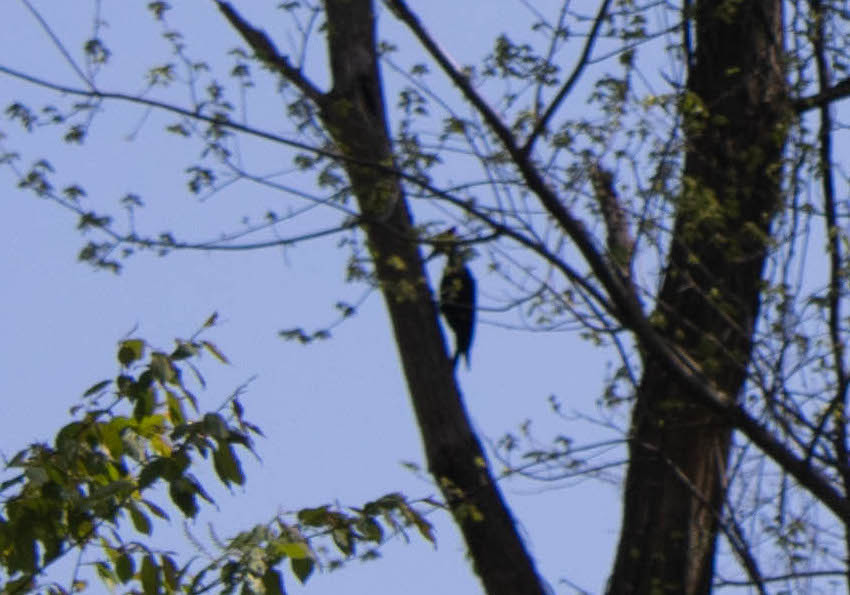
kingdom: Animalia
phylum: Chordata
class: Aves
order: Piciformes
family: Picidae
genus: Dryocopus
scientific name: Dryocopus pileatus
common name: Pileated woodpecker
